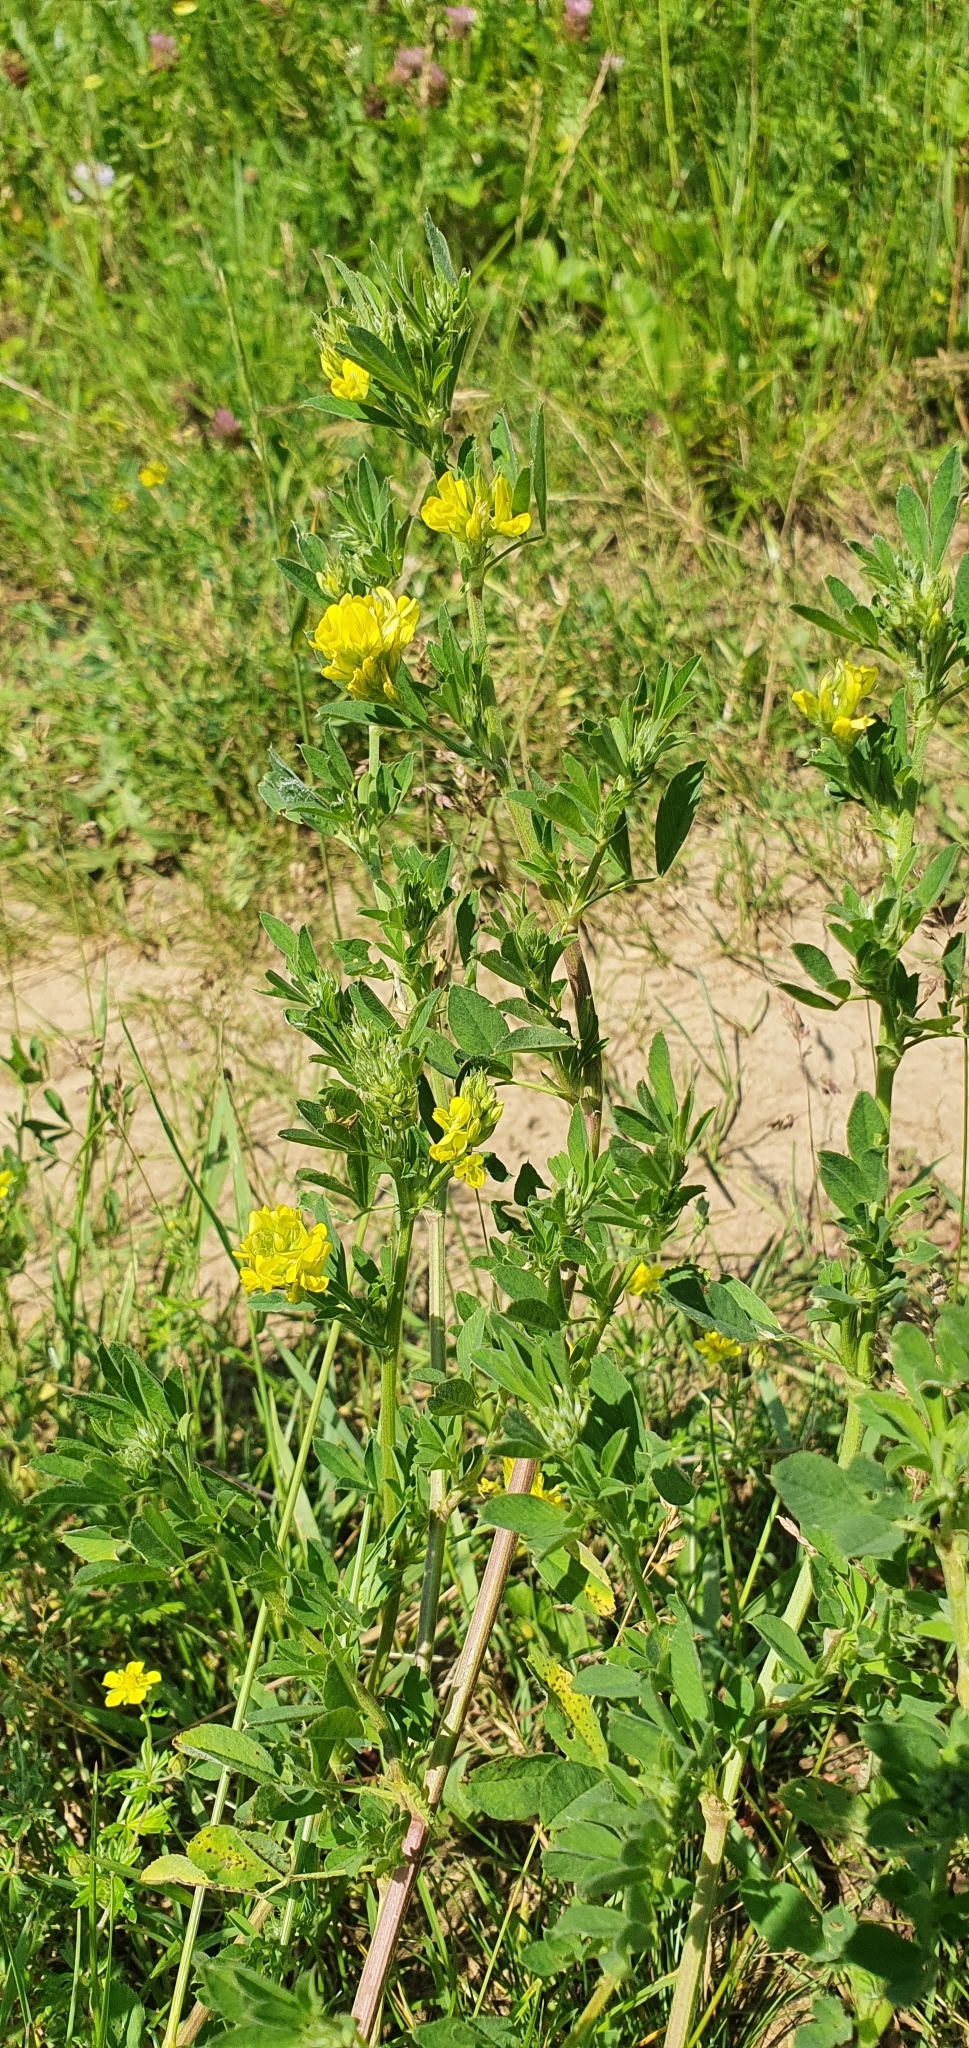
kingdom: Plantae
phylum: Tracheophyta
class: Magnoliopsida
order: Fabales
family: Fabaceae
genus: Medicago
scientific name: Medicago varia
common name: Sand lucerne
